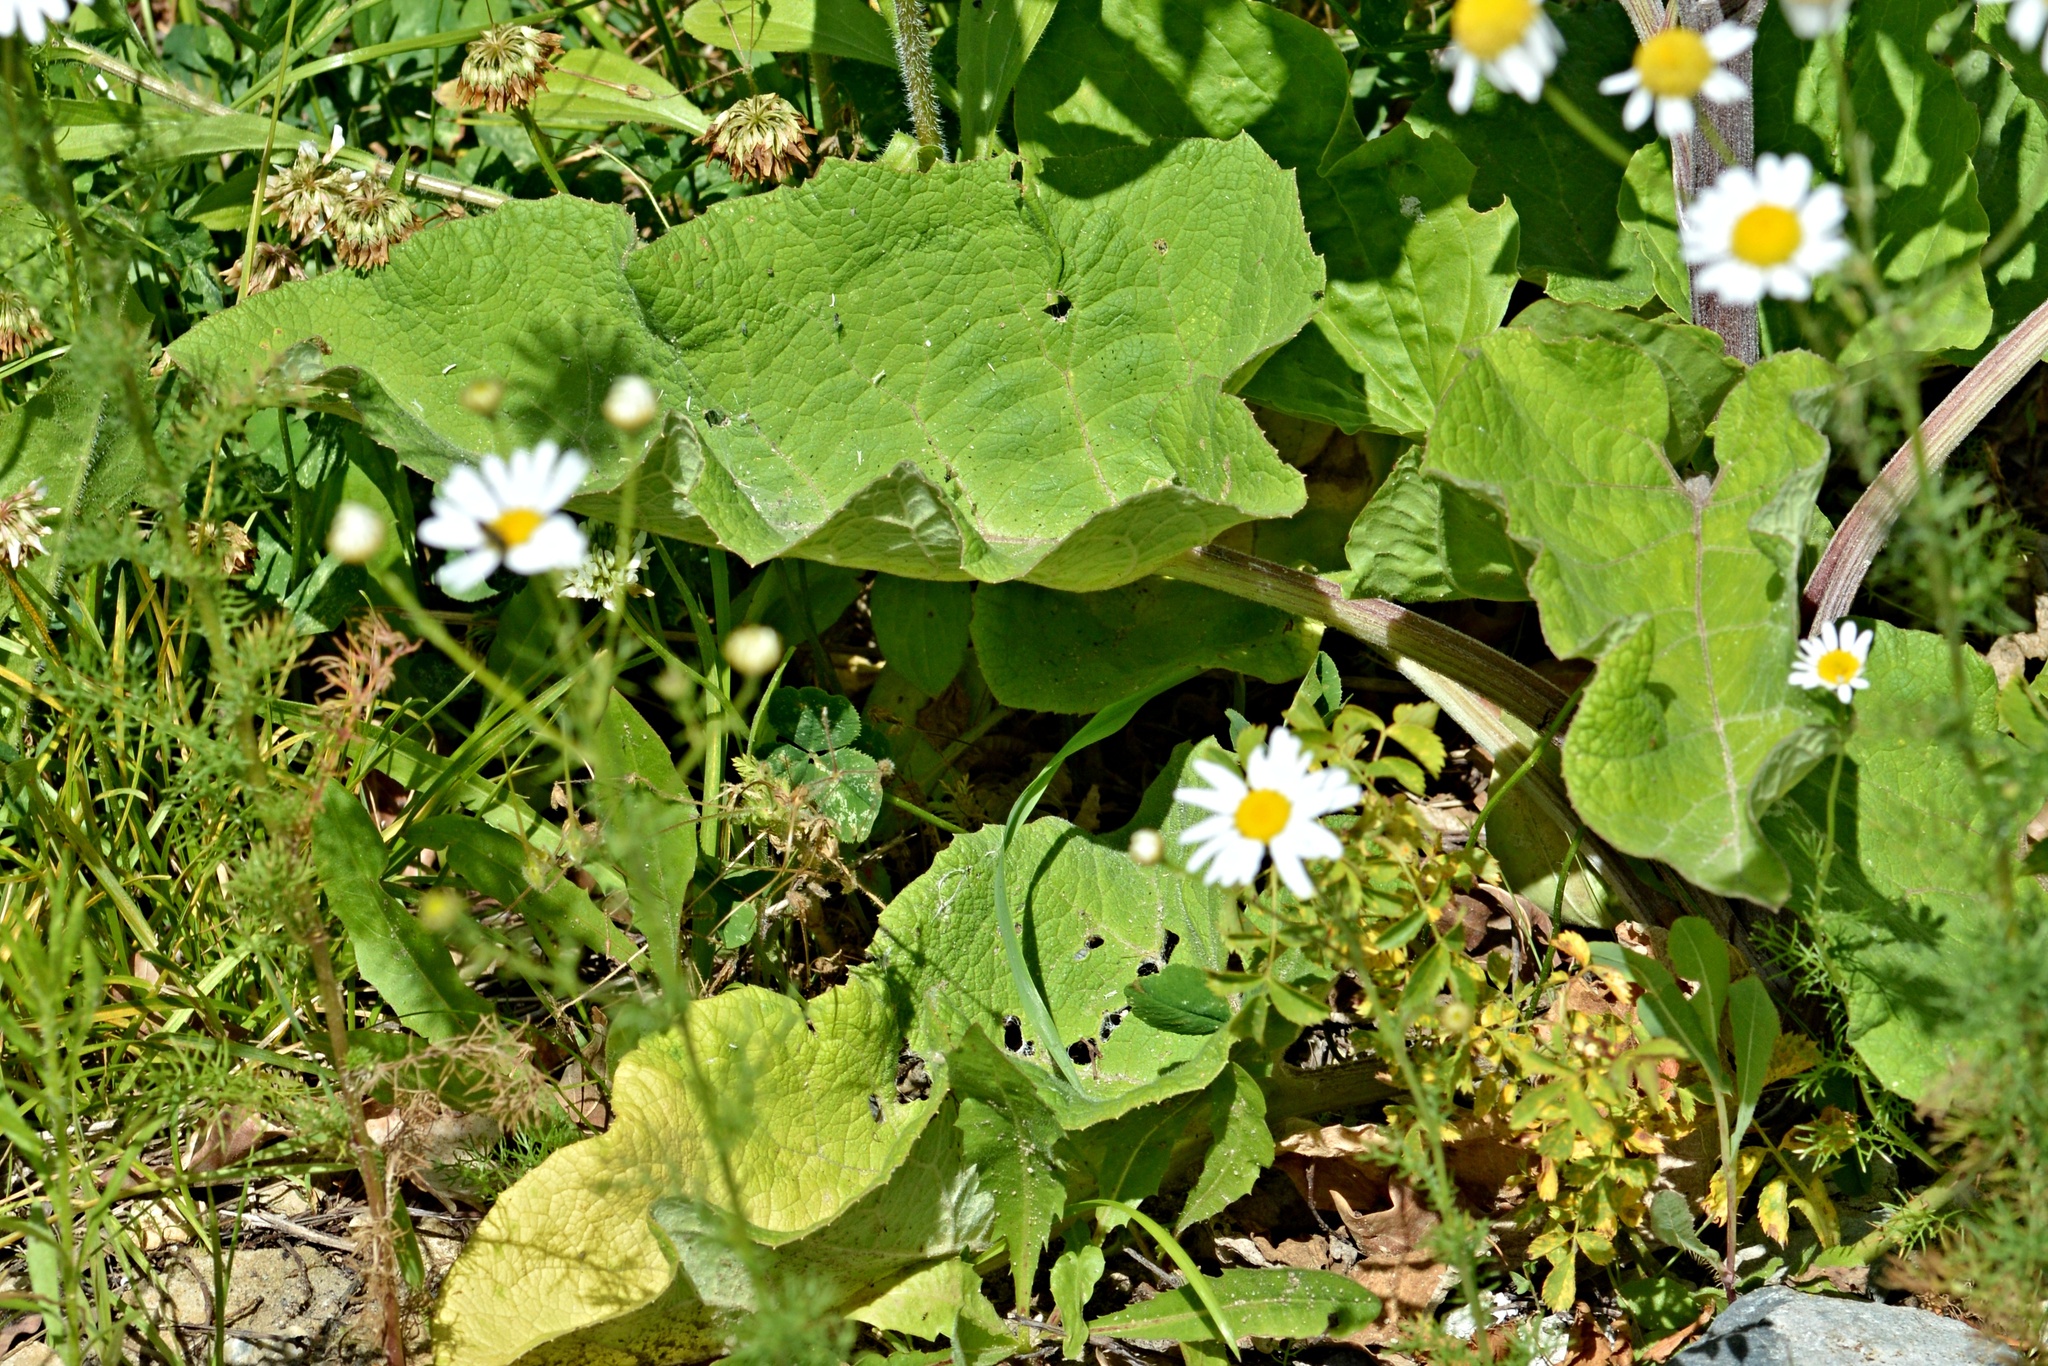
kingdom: Plantae
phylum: Tracheophyta
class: Magnoliopsida
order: Asterales
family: Asteraceae
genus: Arctium
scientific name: Arctium tomentosum
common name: Woolly burdock
